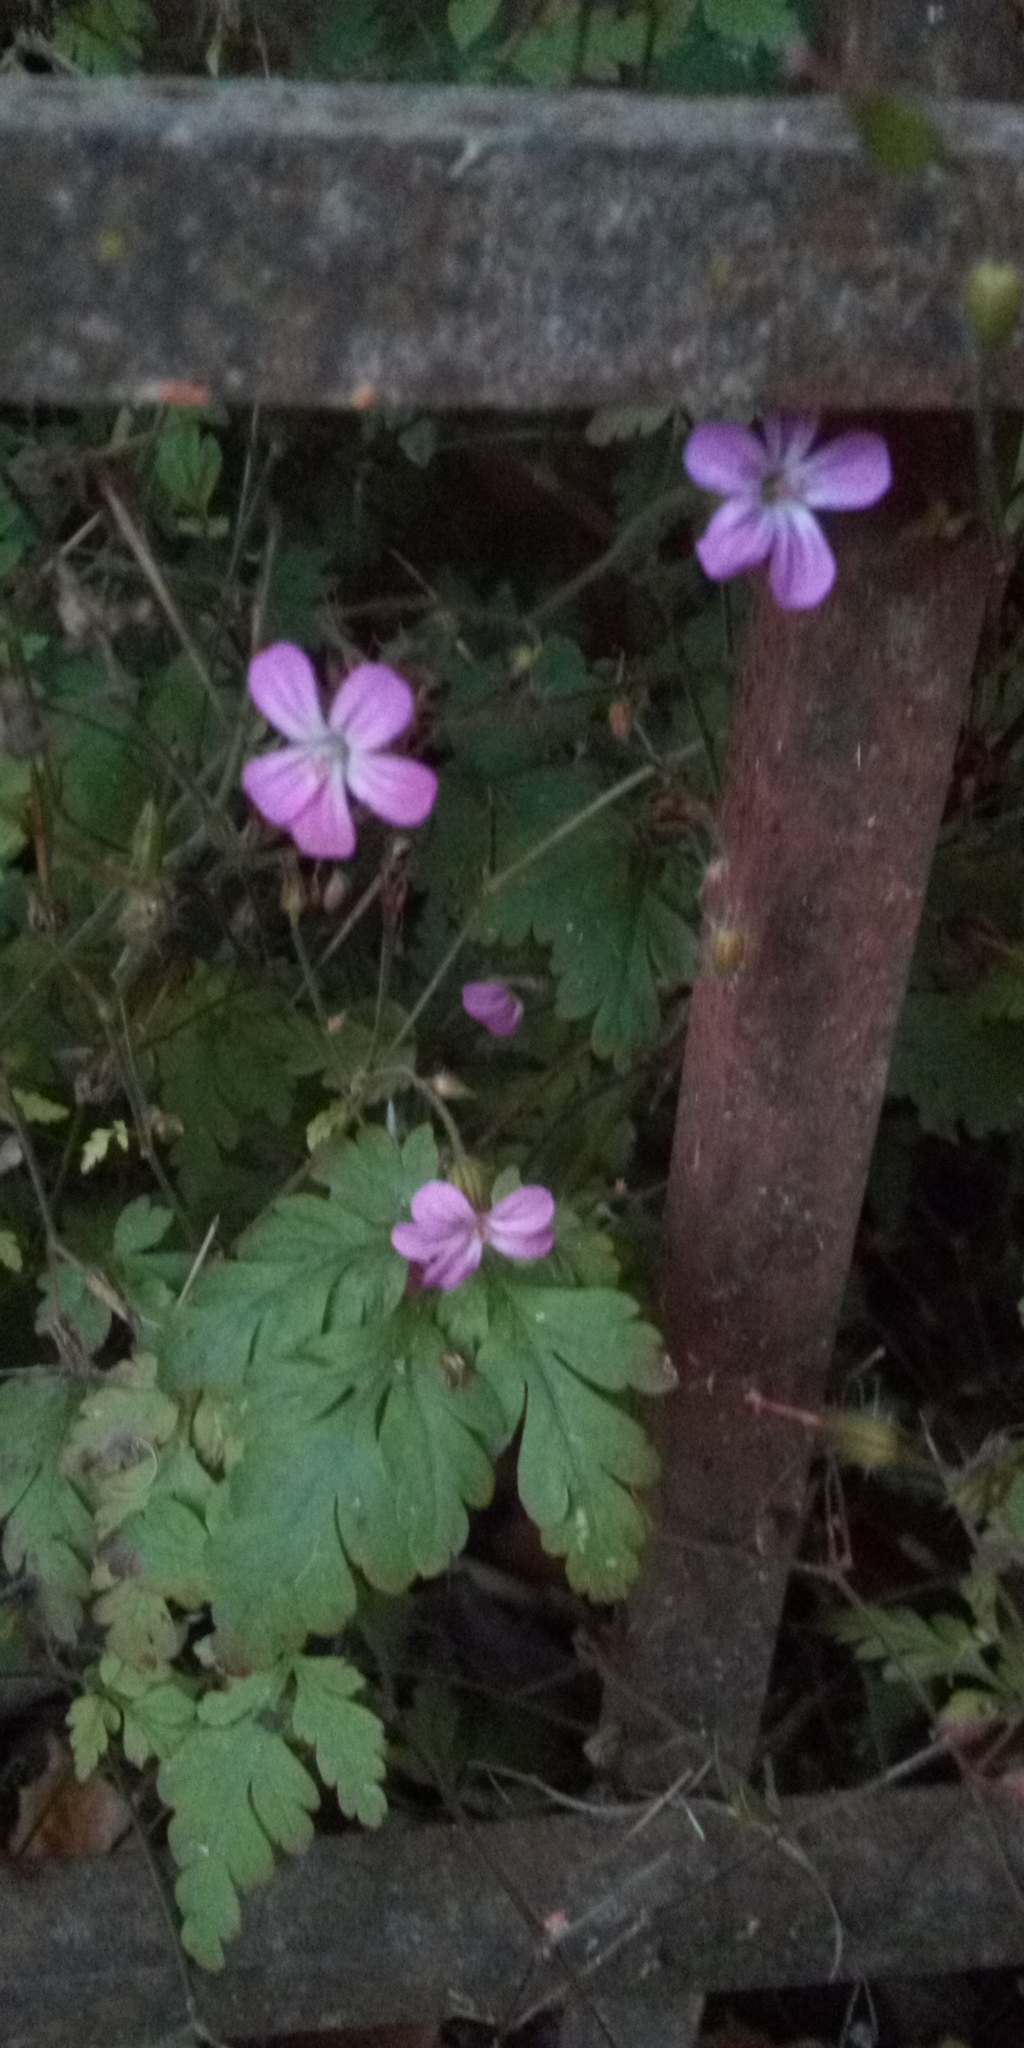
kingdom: Plantae
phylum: Tracheophyta
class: Magnoliopsida
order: Geraniales
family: Geraniaceae
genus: Geranium
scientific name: Geranium robertianum
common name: Herb-robert
